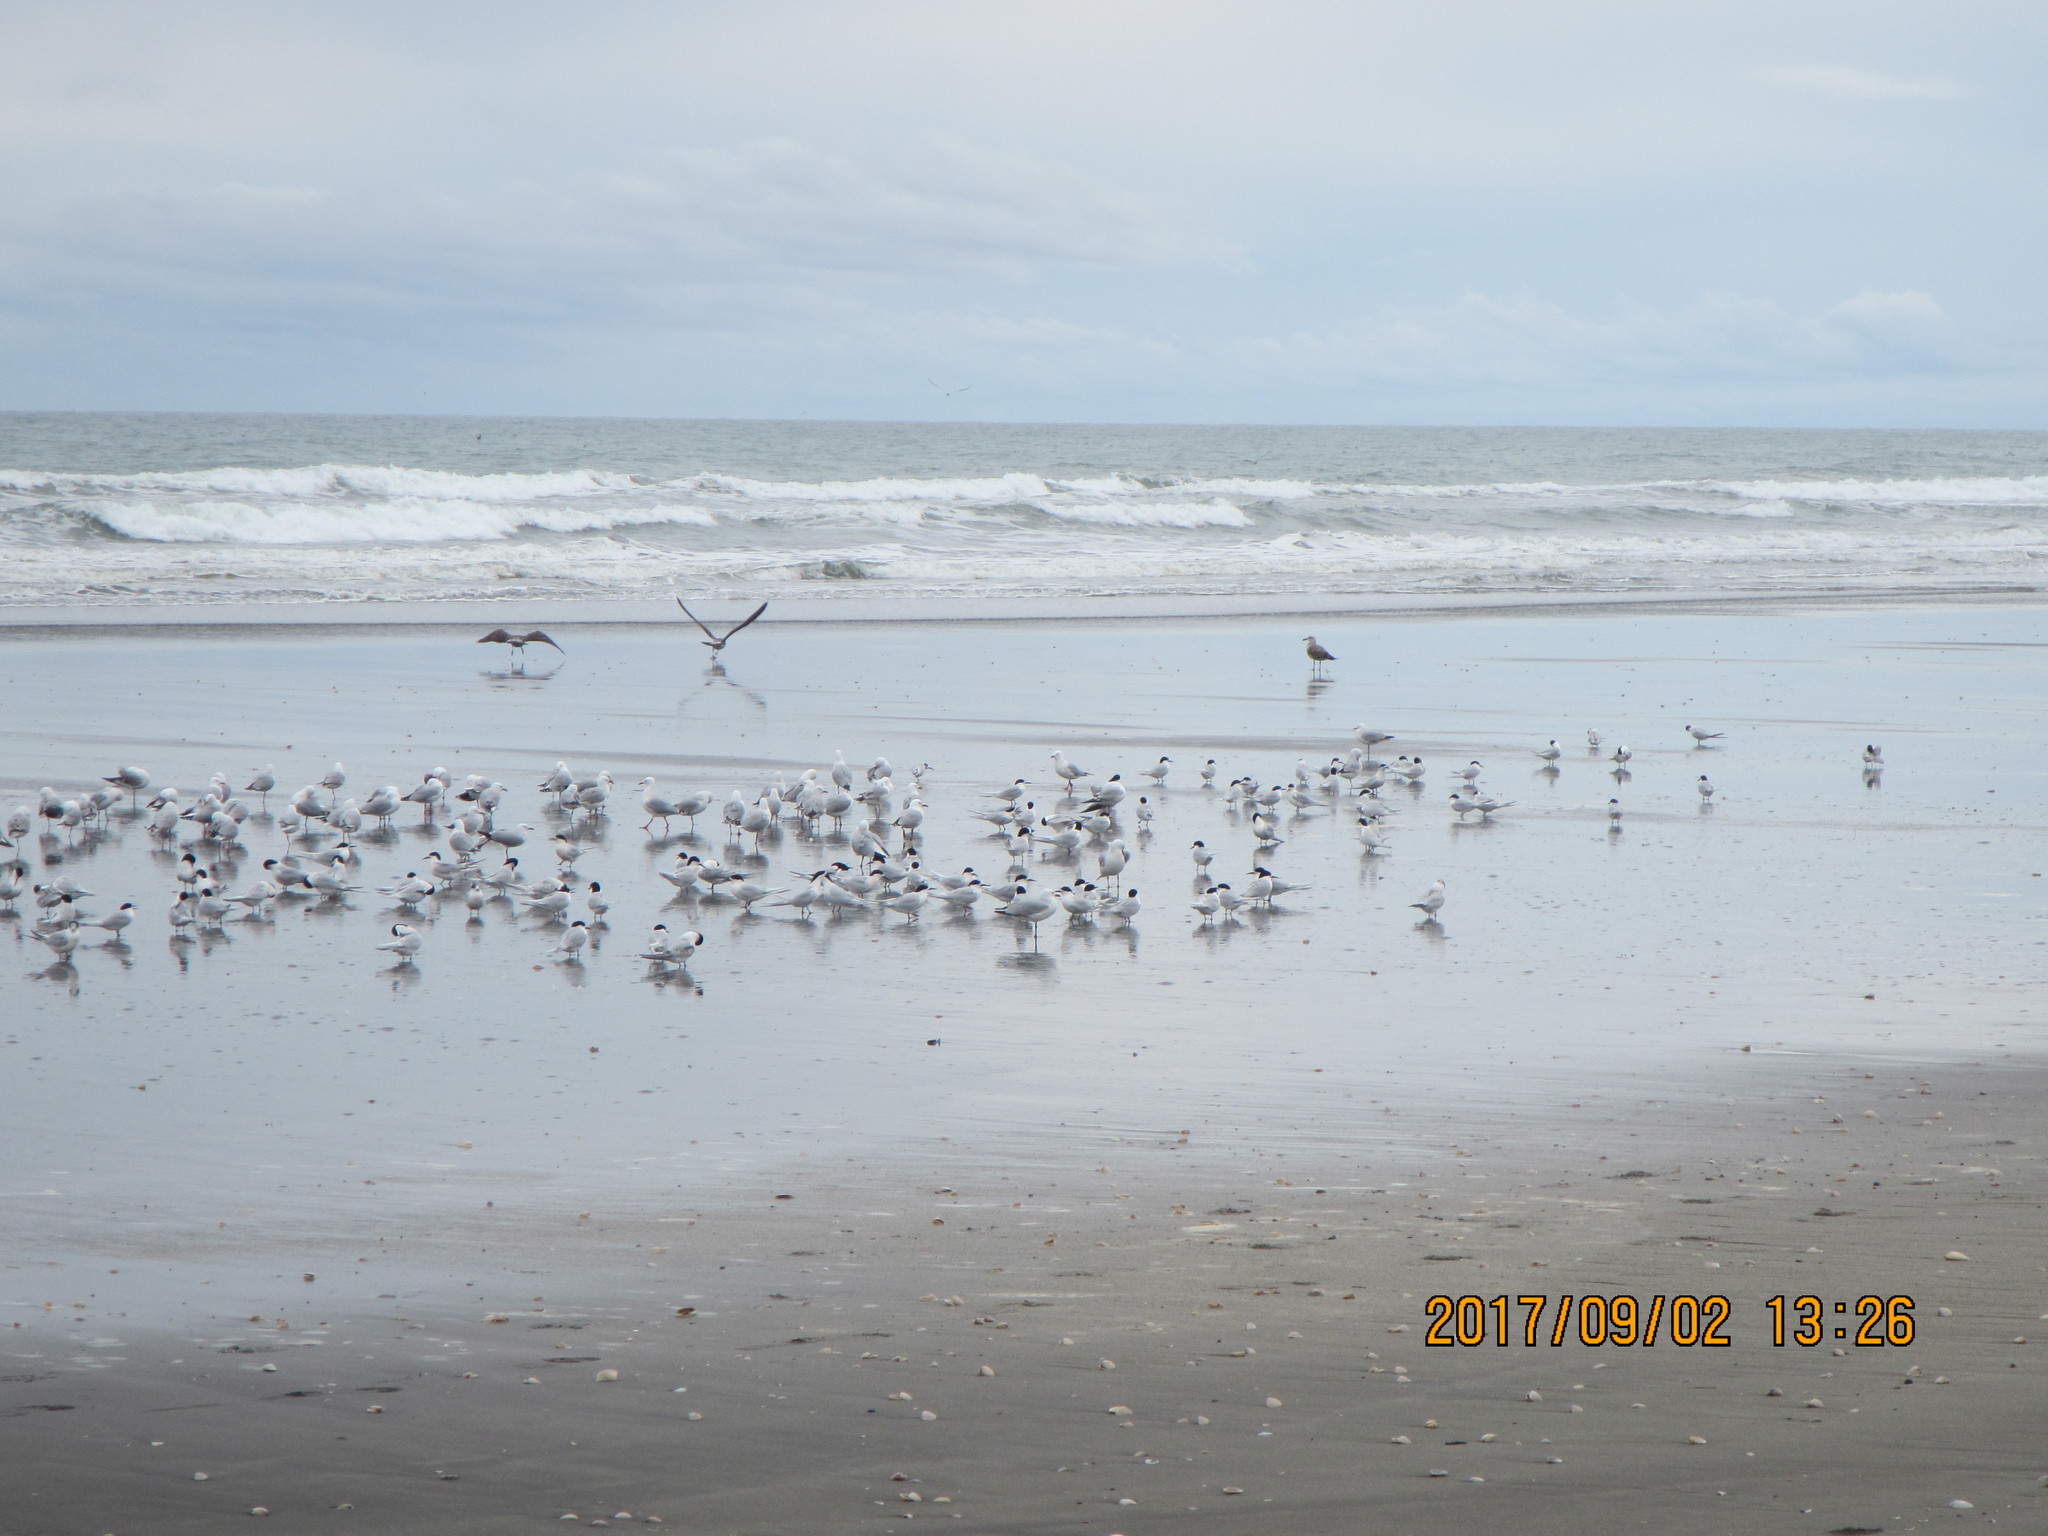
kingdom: Animalia
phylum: Chordata
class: Aves
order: Charadriiformes
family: Laridae
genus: Sterna
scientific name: Sterna striata
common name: White-fronted tern
